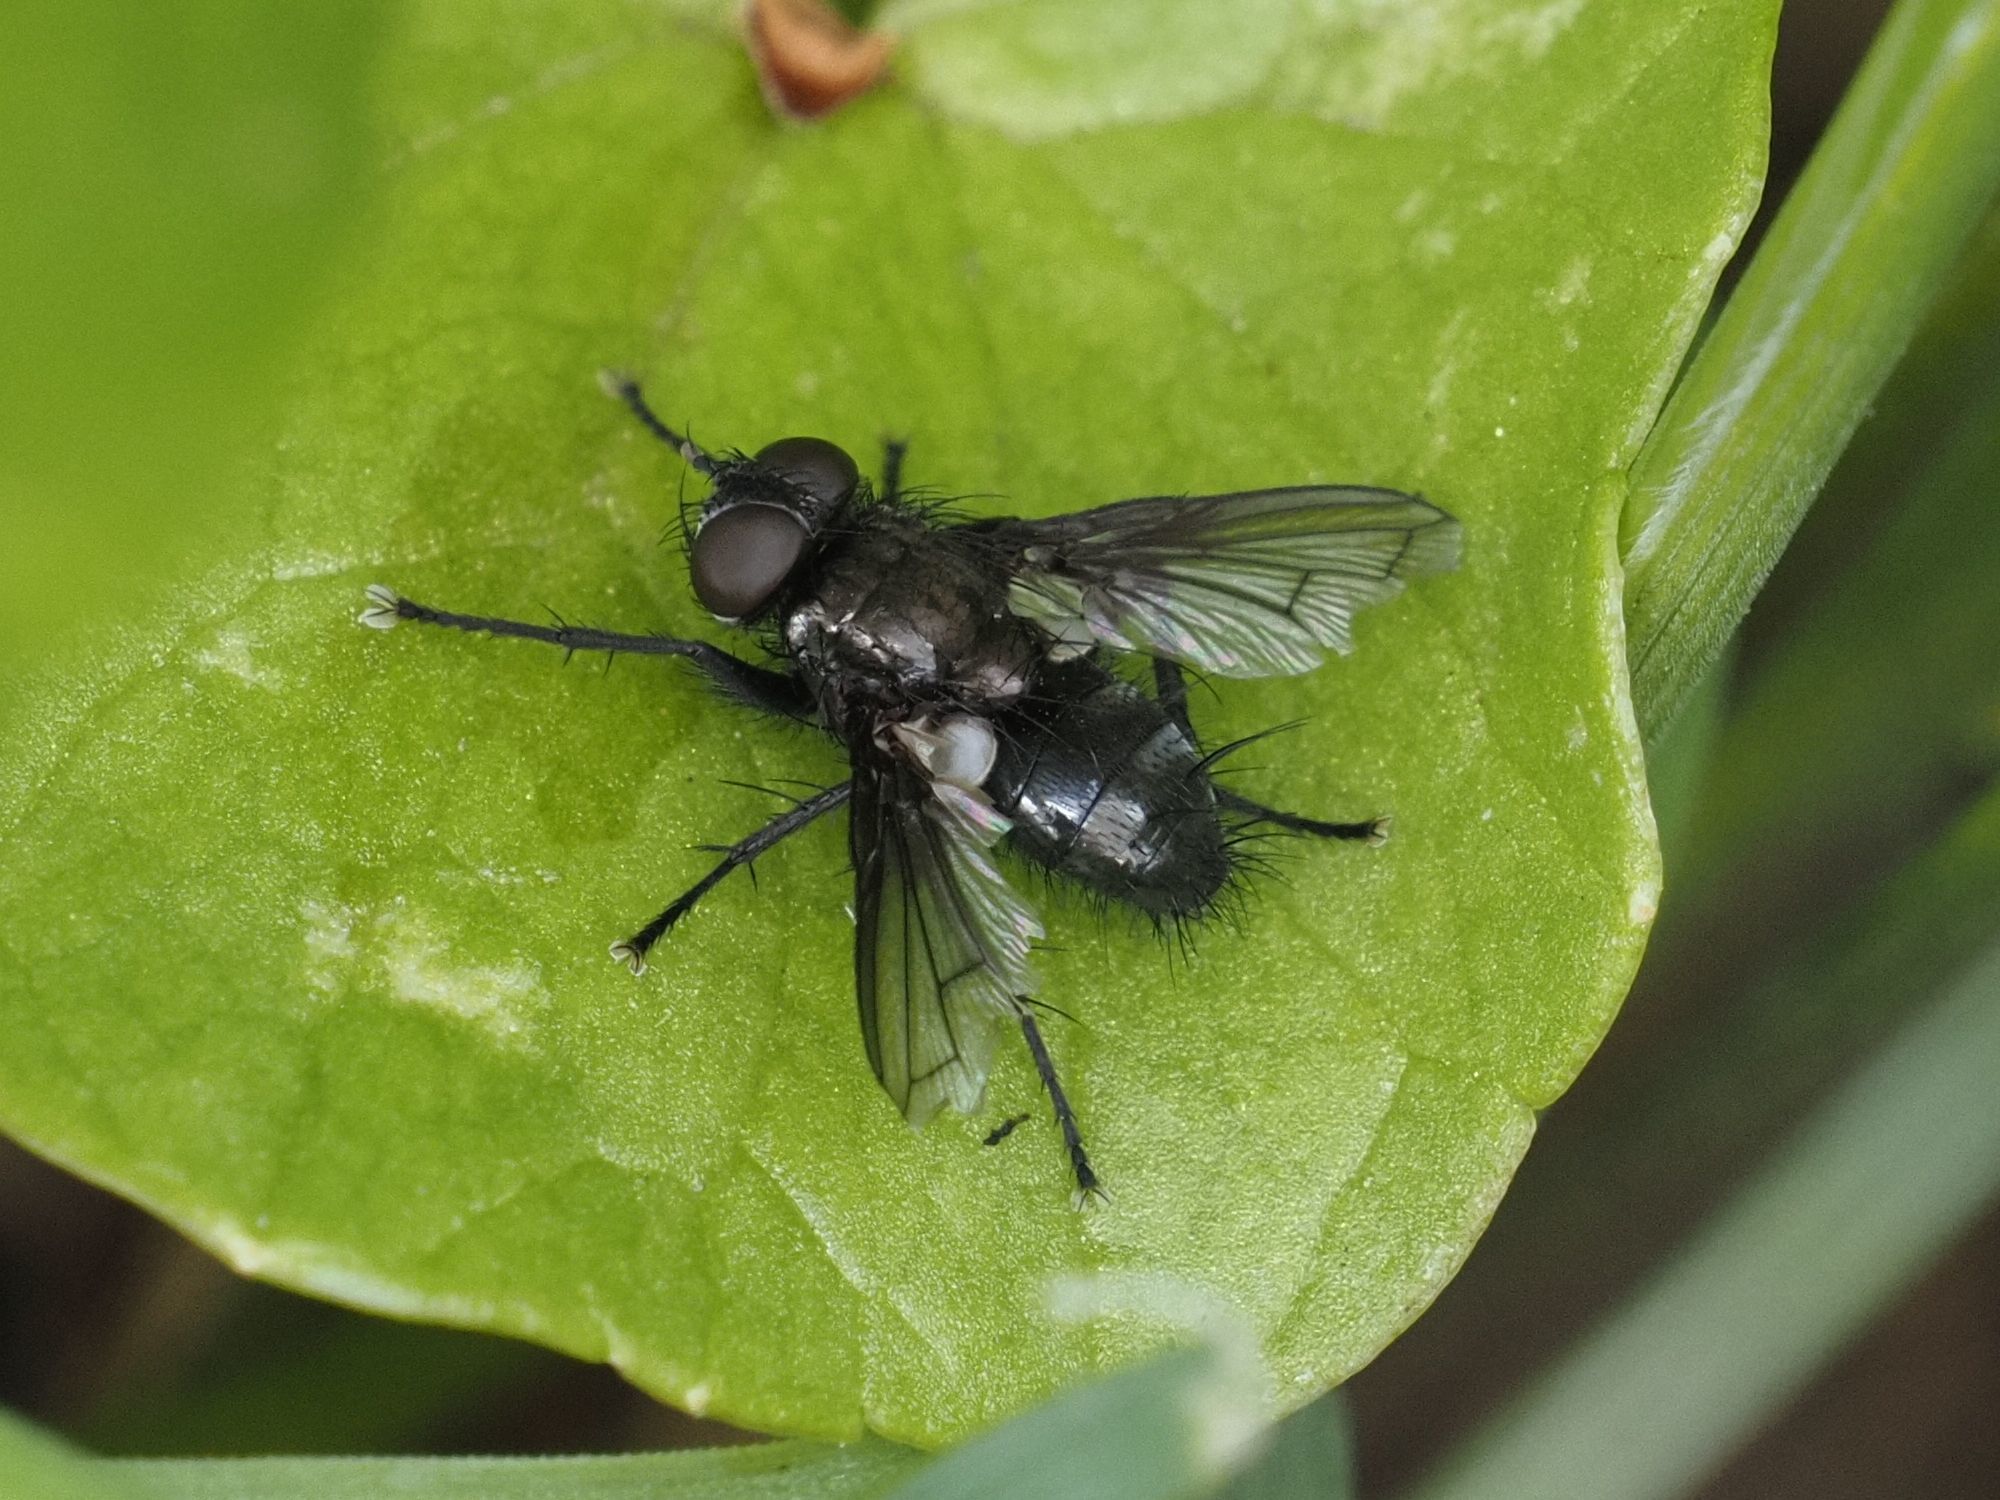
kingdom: Animalia
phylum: Arthropoda
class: Insecta
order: Diptera
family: Tachinidae
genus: Kirbya
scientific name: Kirbya moerens
